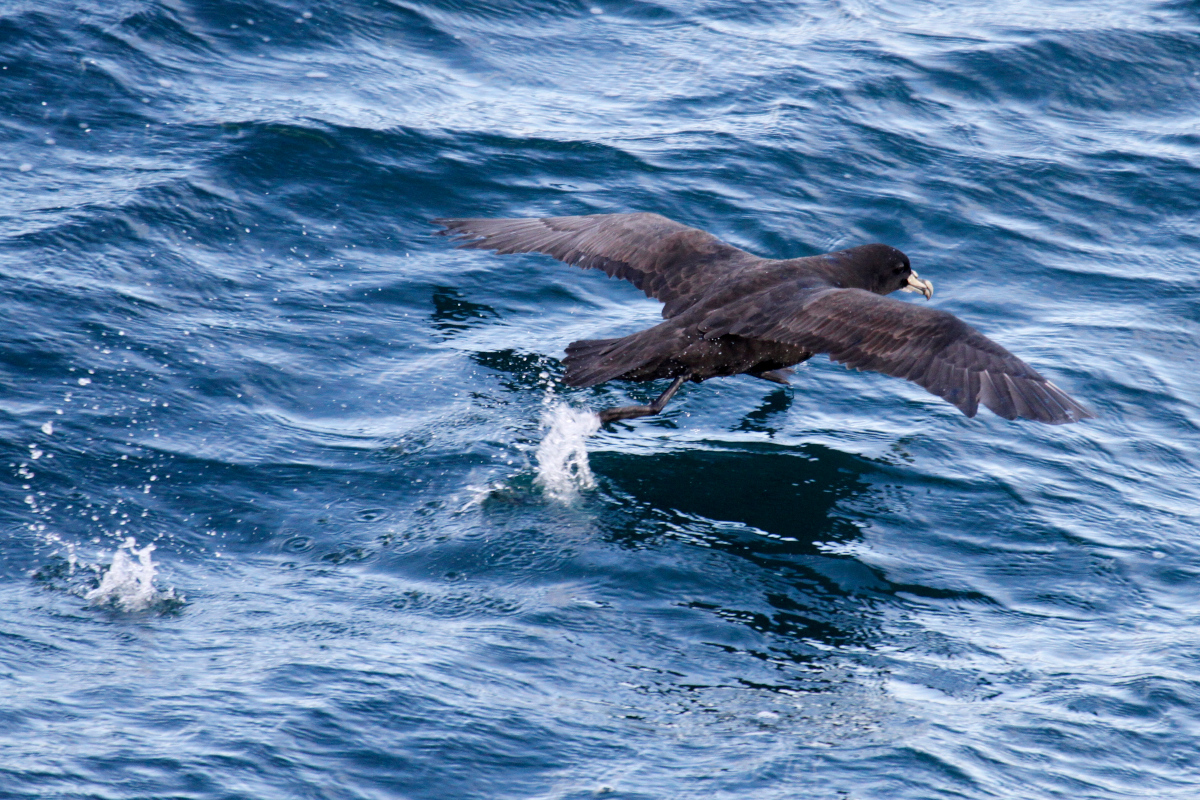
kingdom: Animalia
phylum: Chordata
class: Aves
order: Procellariiformes
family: Procellariidae
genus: Procellaria
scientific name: Procellaria aequinoctialis
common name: White-chinned petrel
